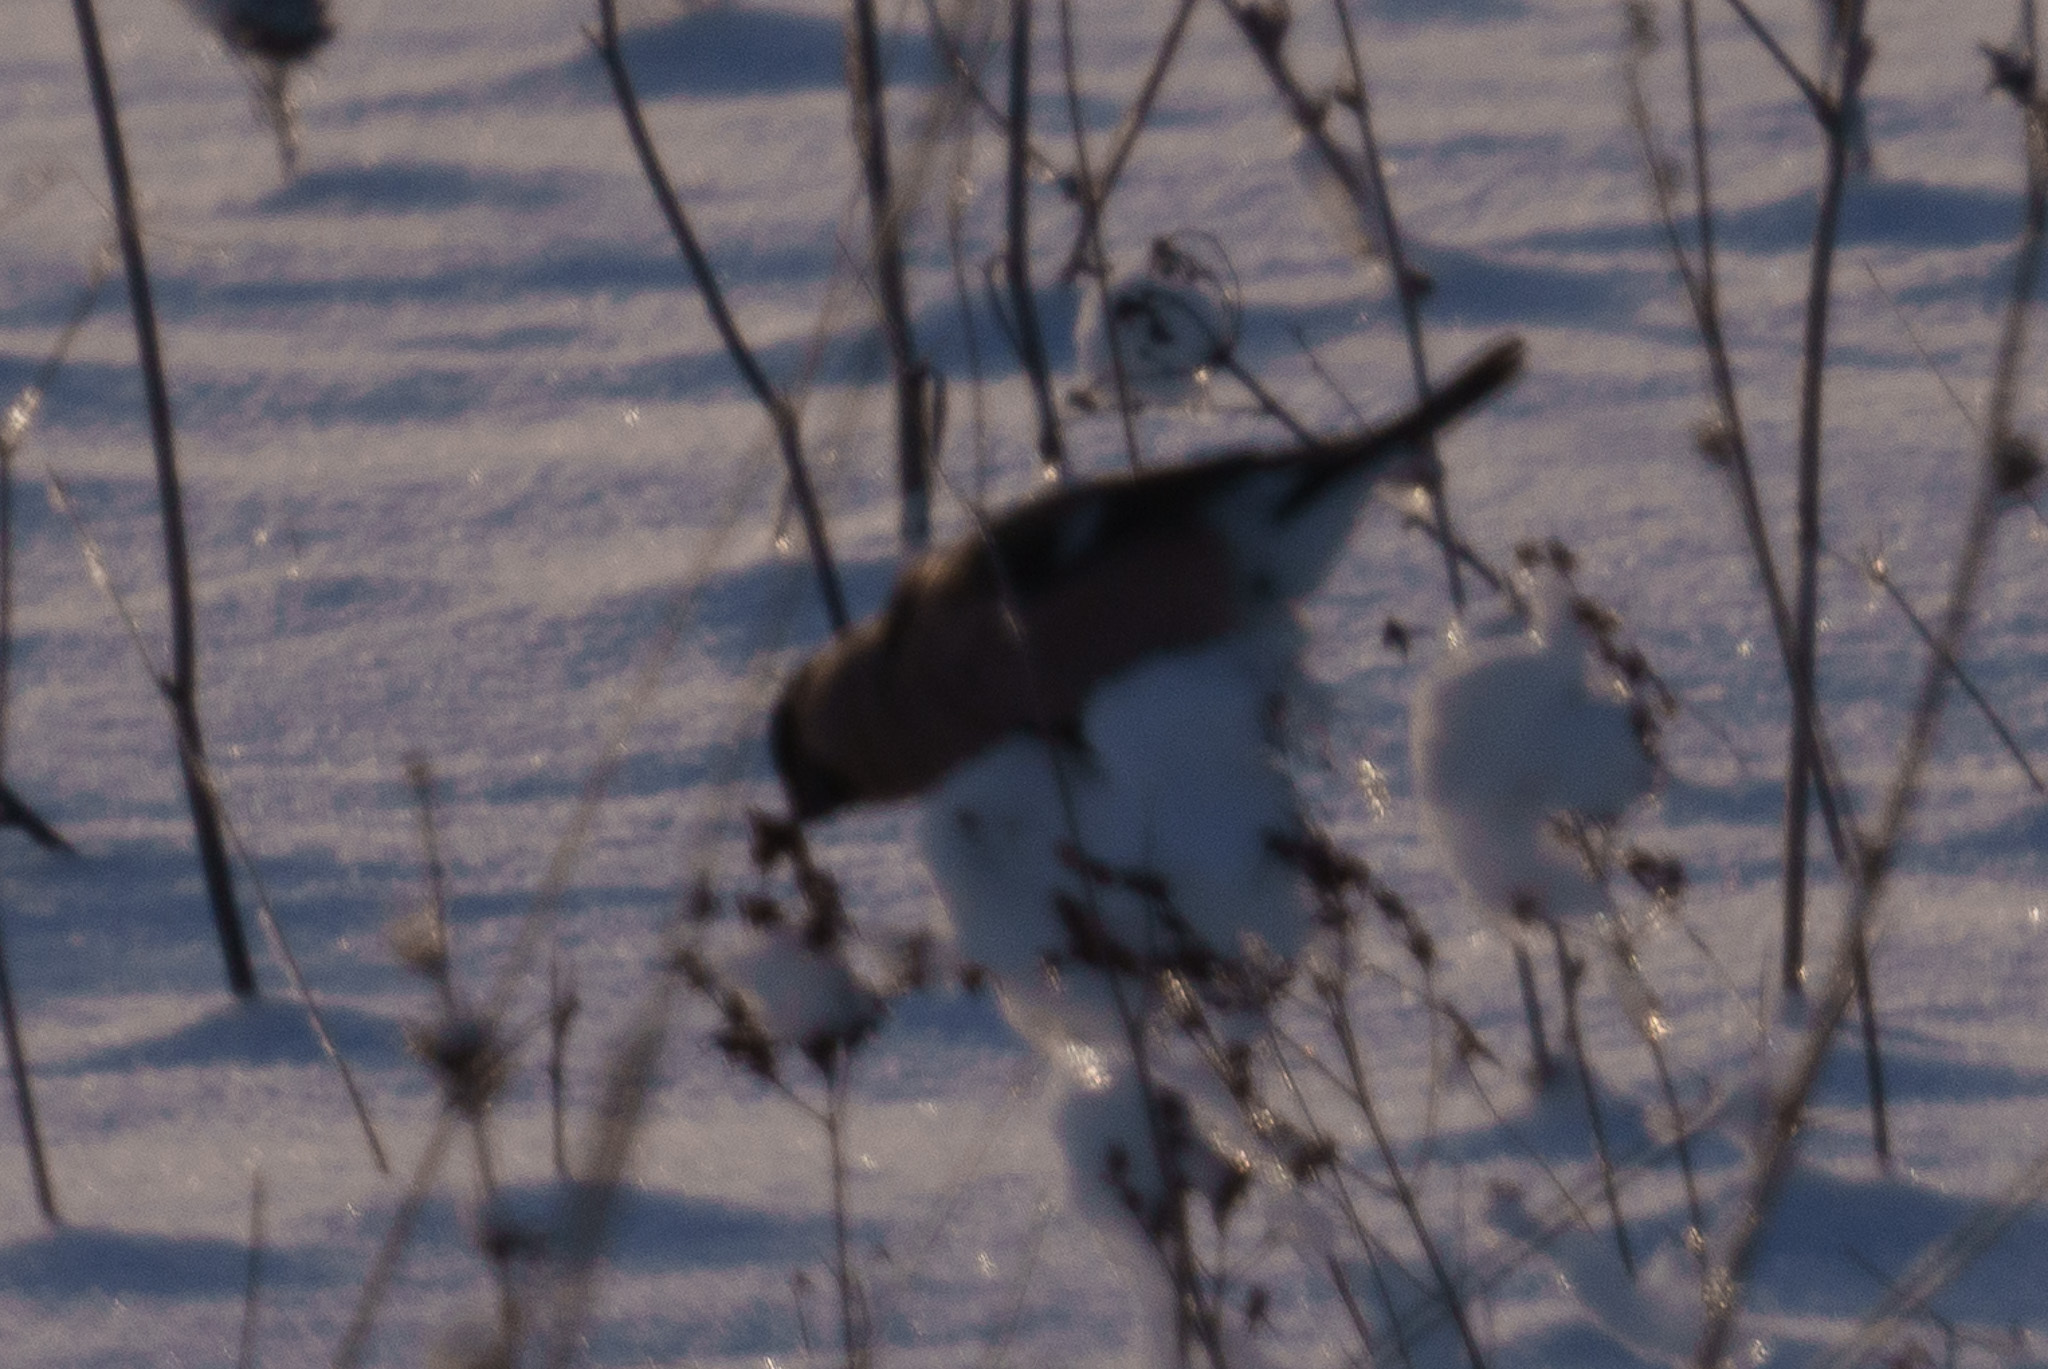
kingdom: Animalia
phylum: Chordata
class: Aves
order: Passeriformes
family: Fringillidae
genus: Pyrrhula
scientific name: Pyrrhula pyrrhula
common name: Eurasian bullfinch
